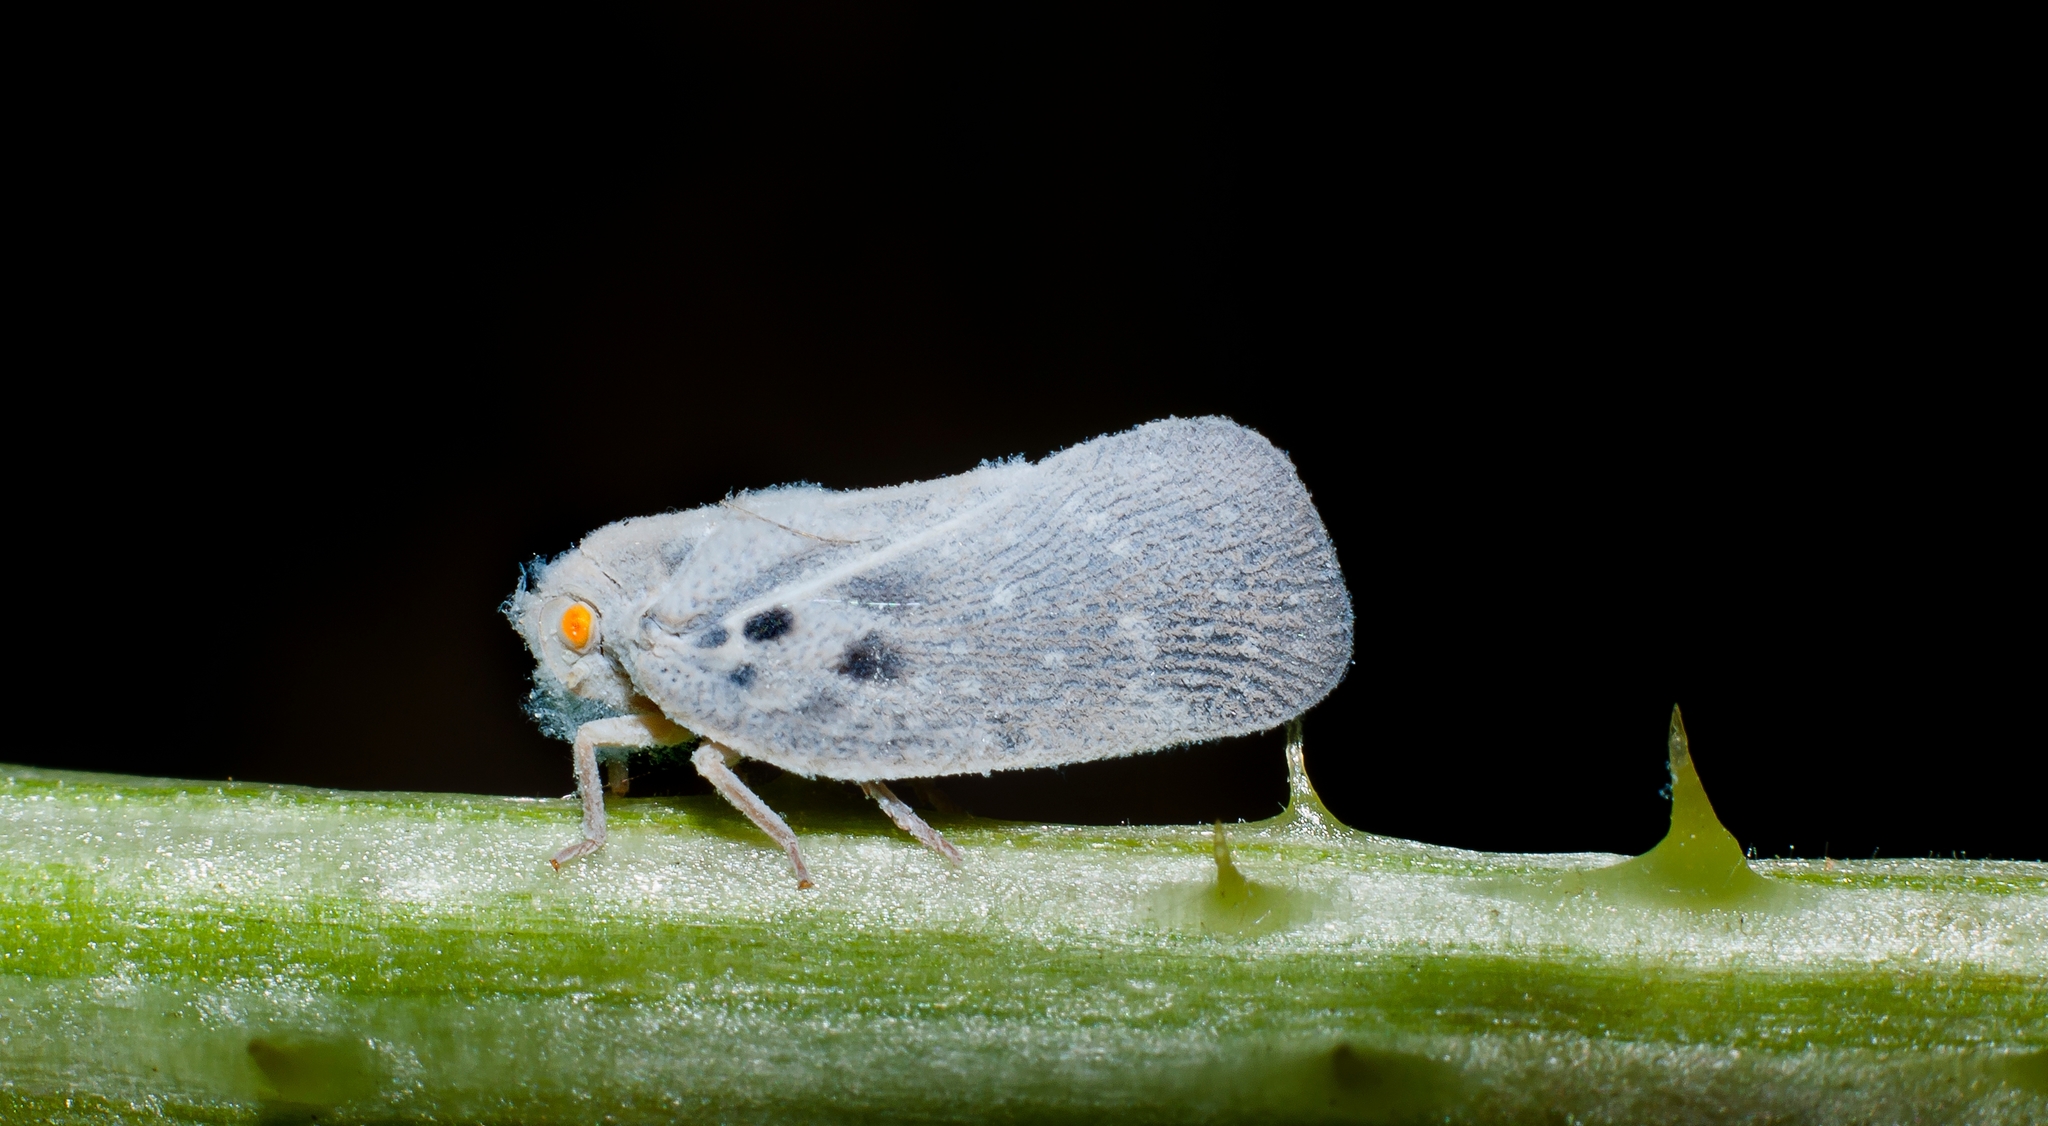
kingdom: Animalia
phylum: Arthropoda
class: Insecta
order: Hemiptera
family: Flatidae
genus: Metcalfa
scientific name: Metcalfa pruinosa
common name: Citrus flatid planthopper
